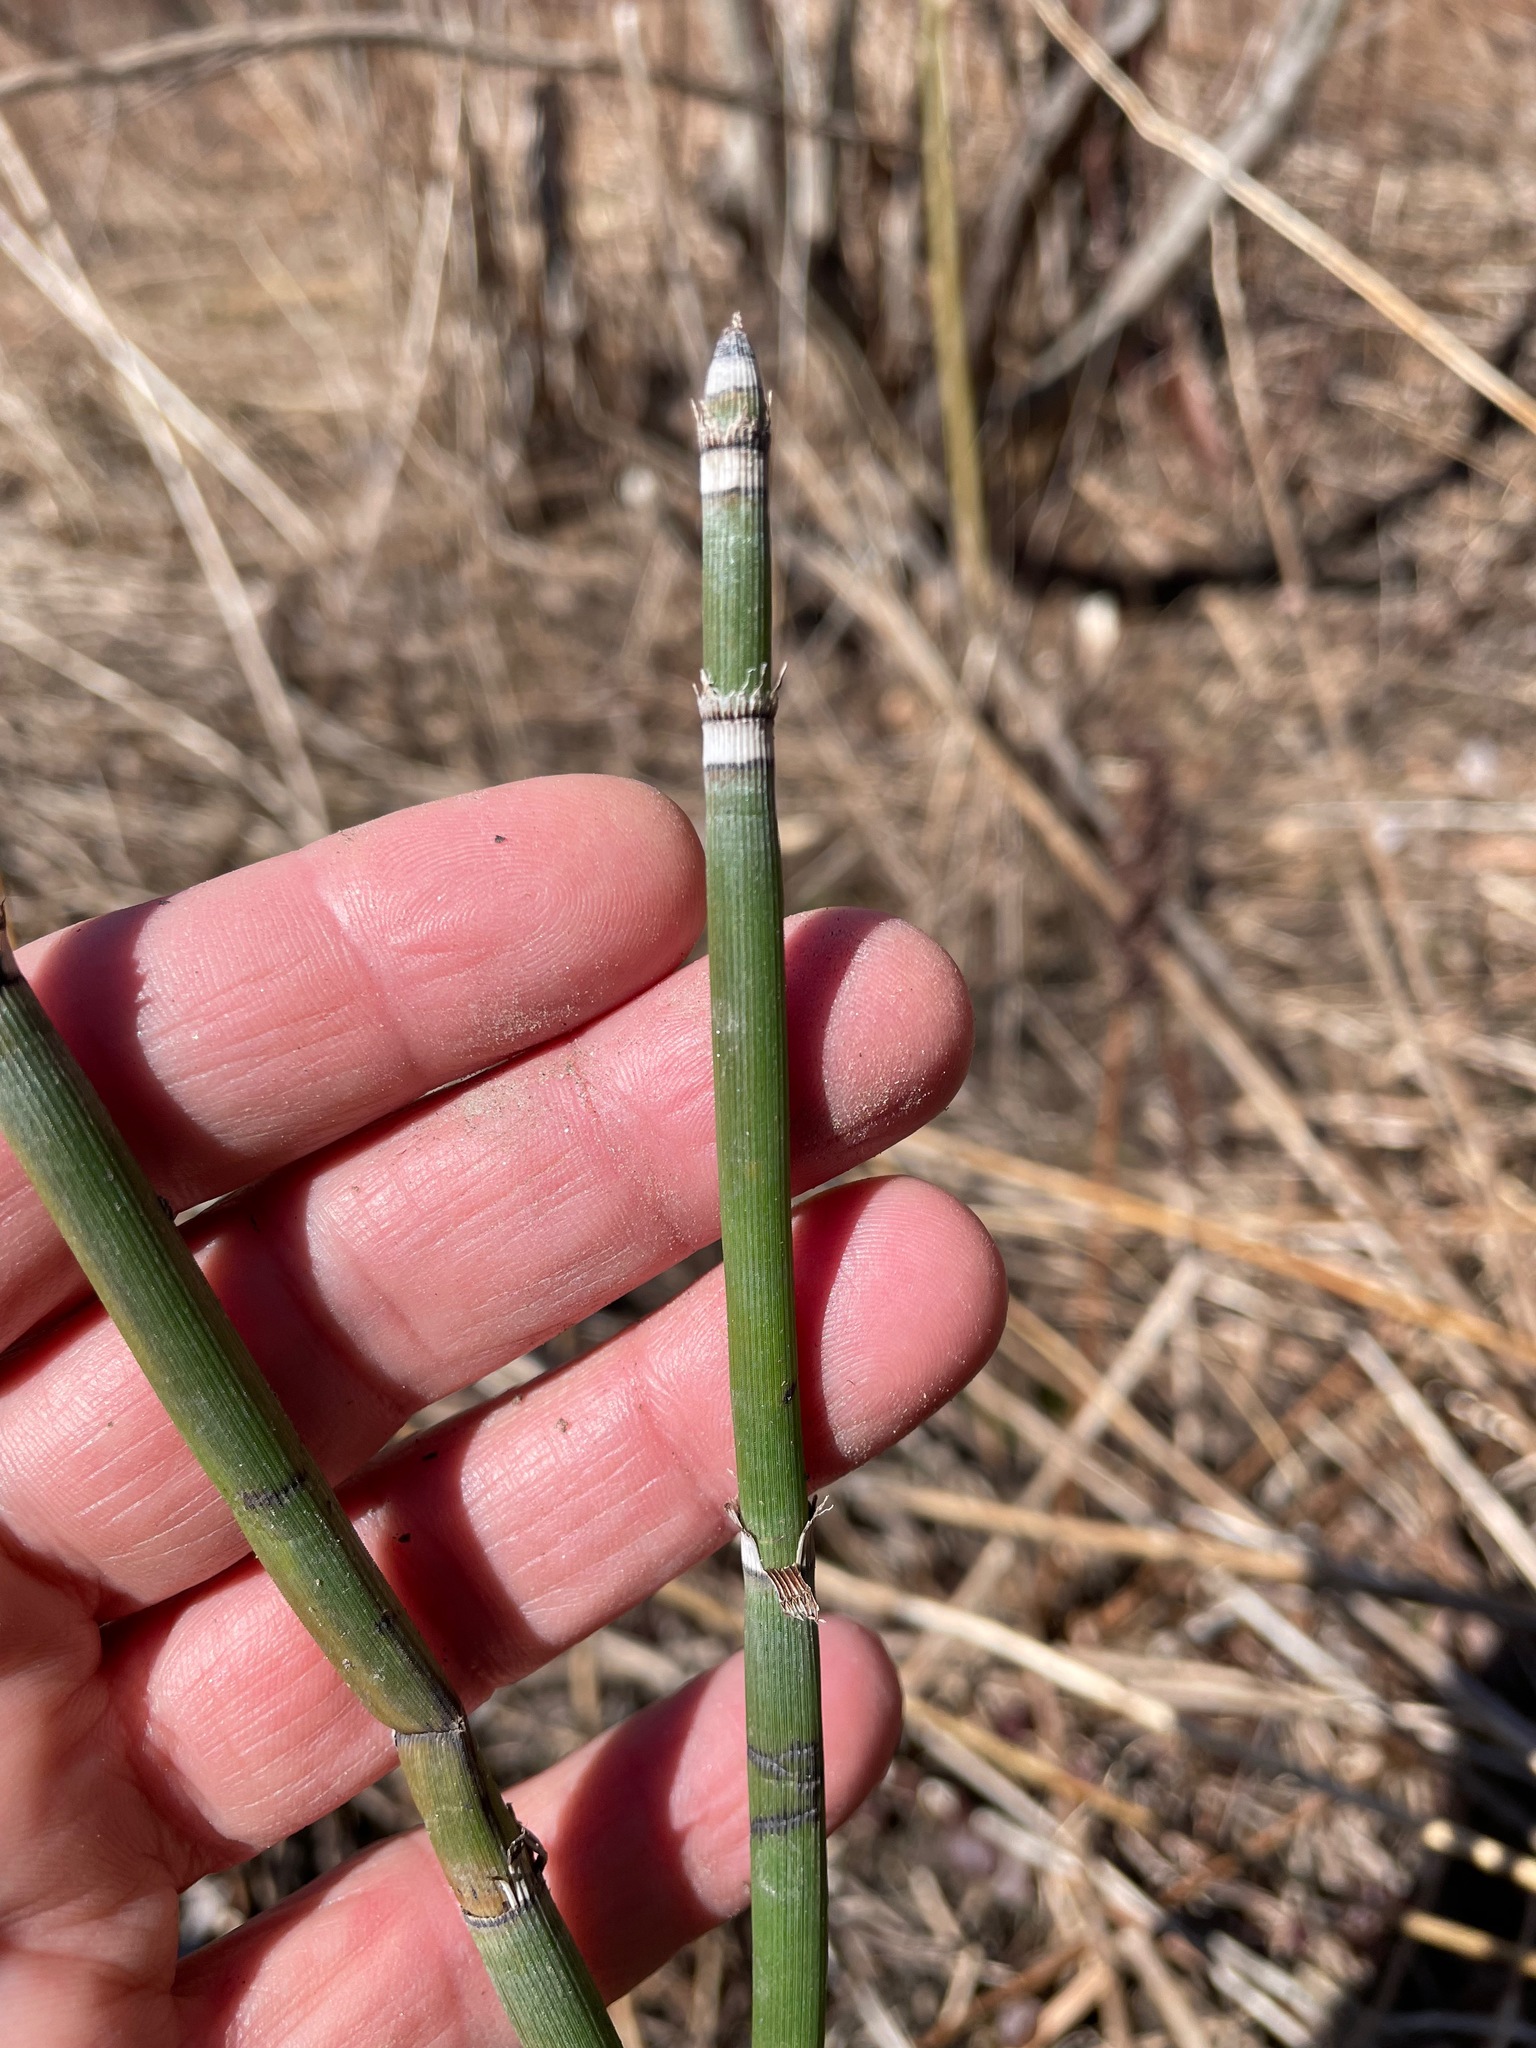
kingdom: Plantae
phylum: Tracheophyta
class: Polypodiopsida
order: Equisetales
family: Equisetaceae
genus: Equisetum
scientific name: Equisetum hyemale
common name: Rough horsetail
